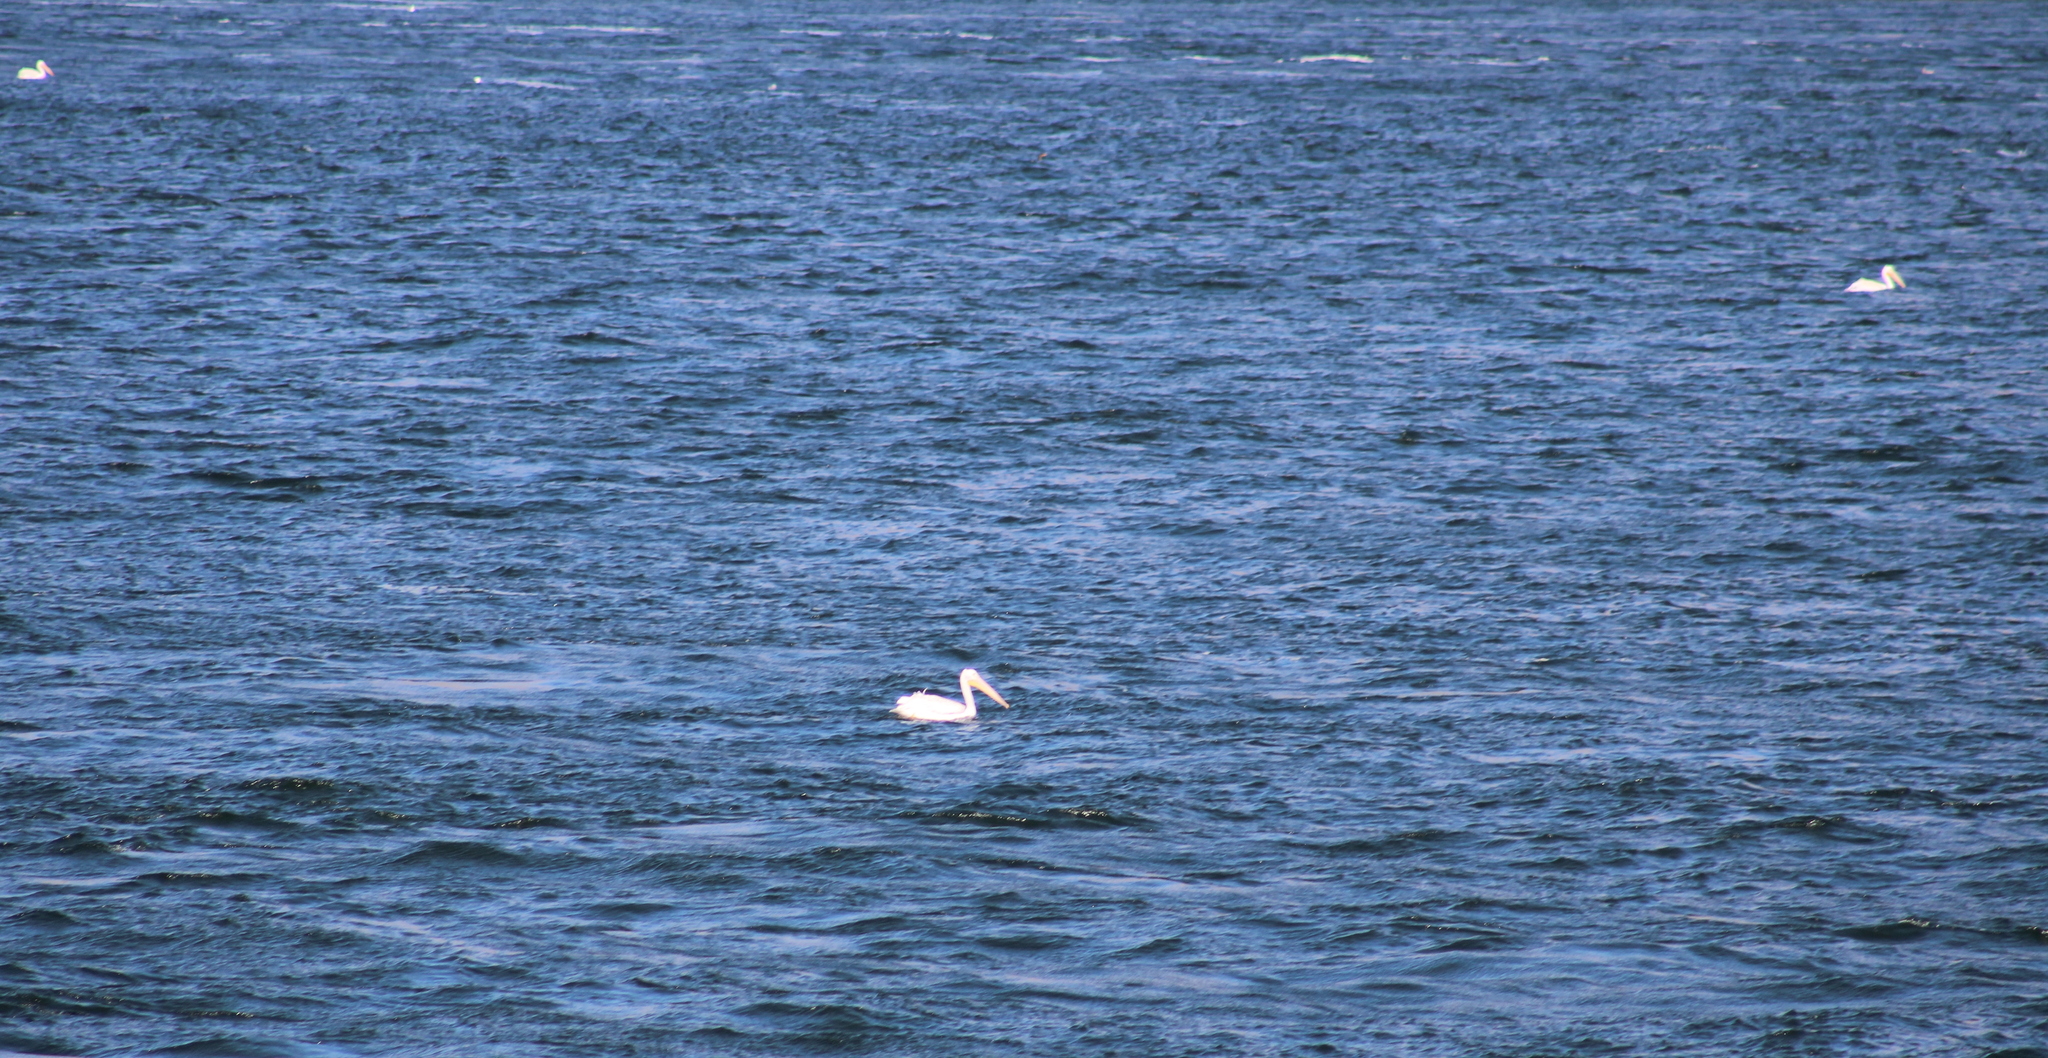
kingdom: Animalia
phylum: Chordata
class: Aves
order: Pelecaniformes
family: Pelecanidae
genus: Pelecanus
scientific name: Pelecanus erythrorhynchos
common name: American white pelican
